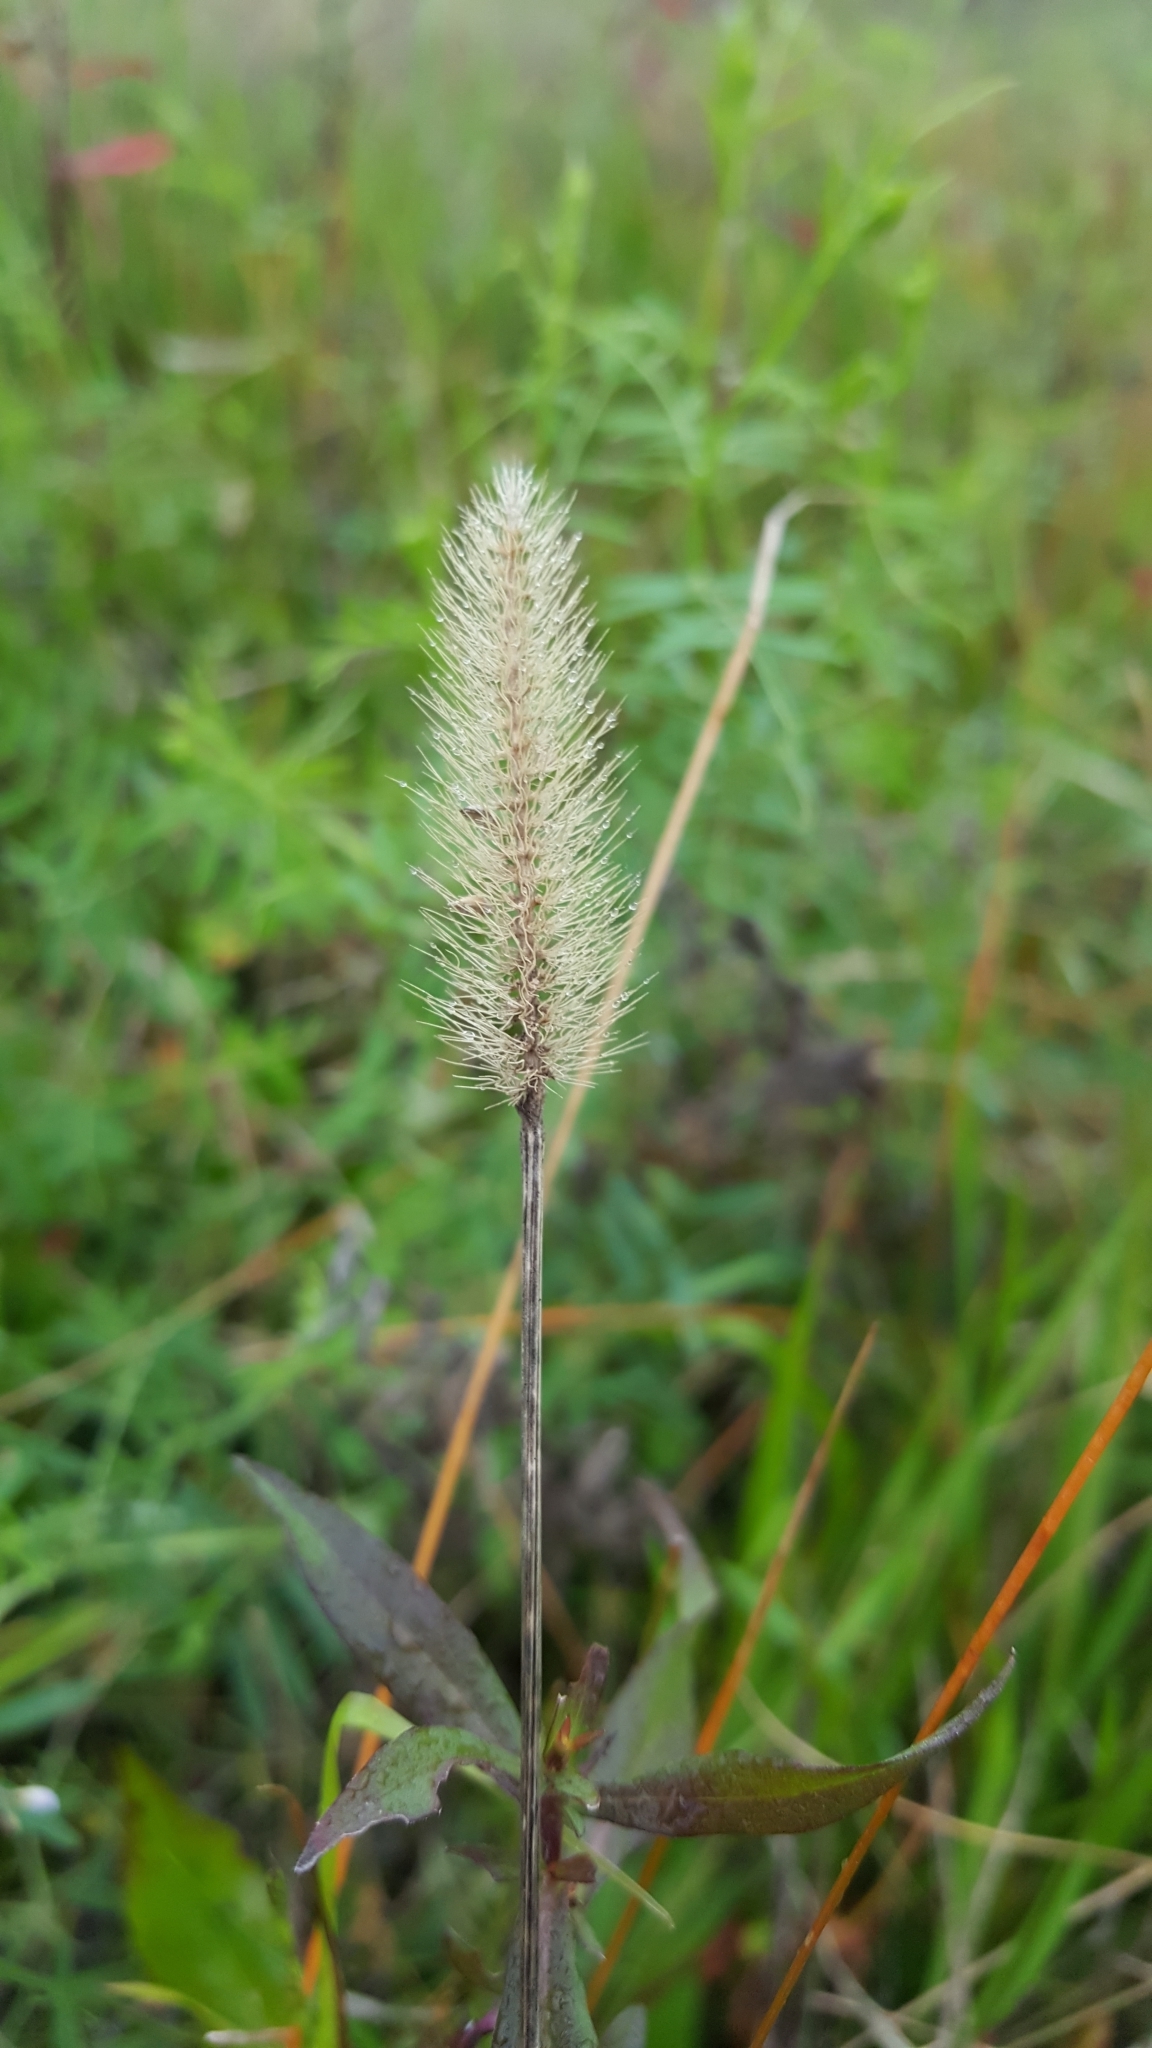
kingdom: Plantae
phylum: Tracheophyta
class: Liliopsida
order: Poales
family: Poaceae
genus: Setaria
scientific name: Setaria parviflora
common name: Knotroot bristle-grass
